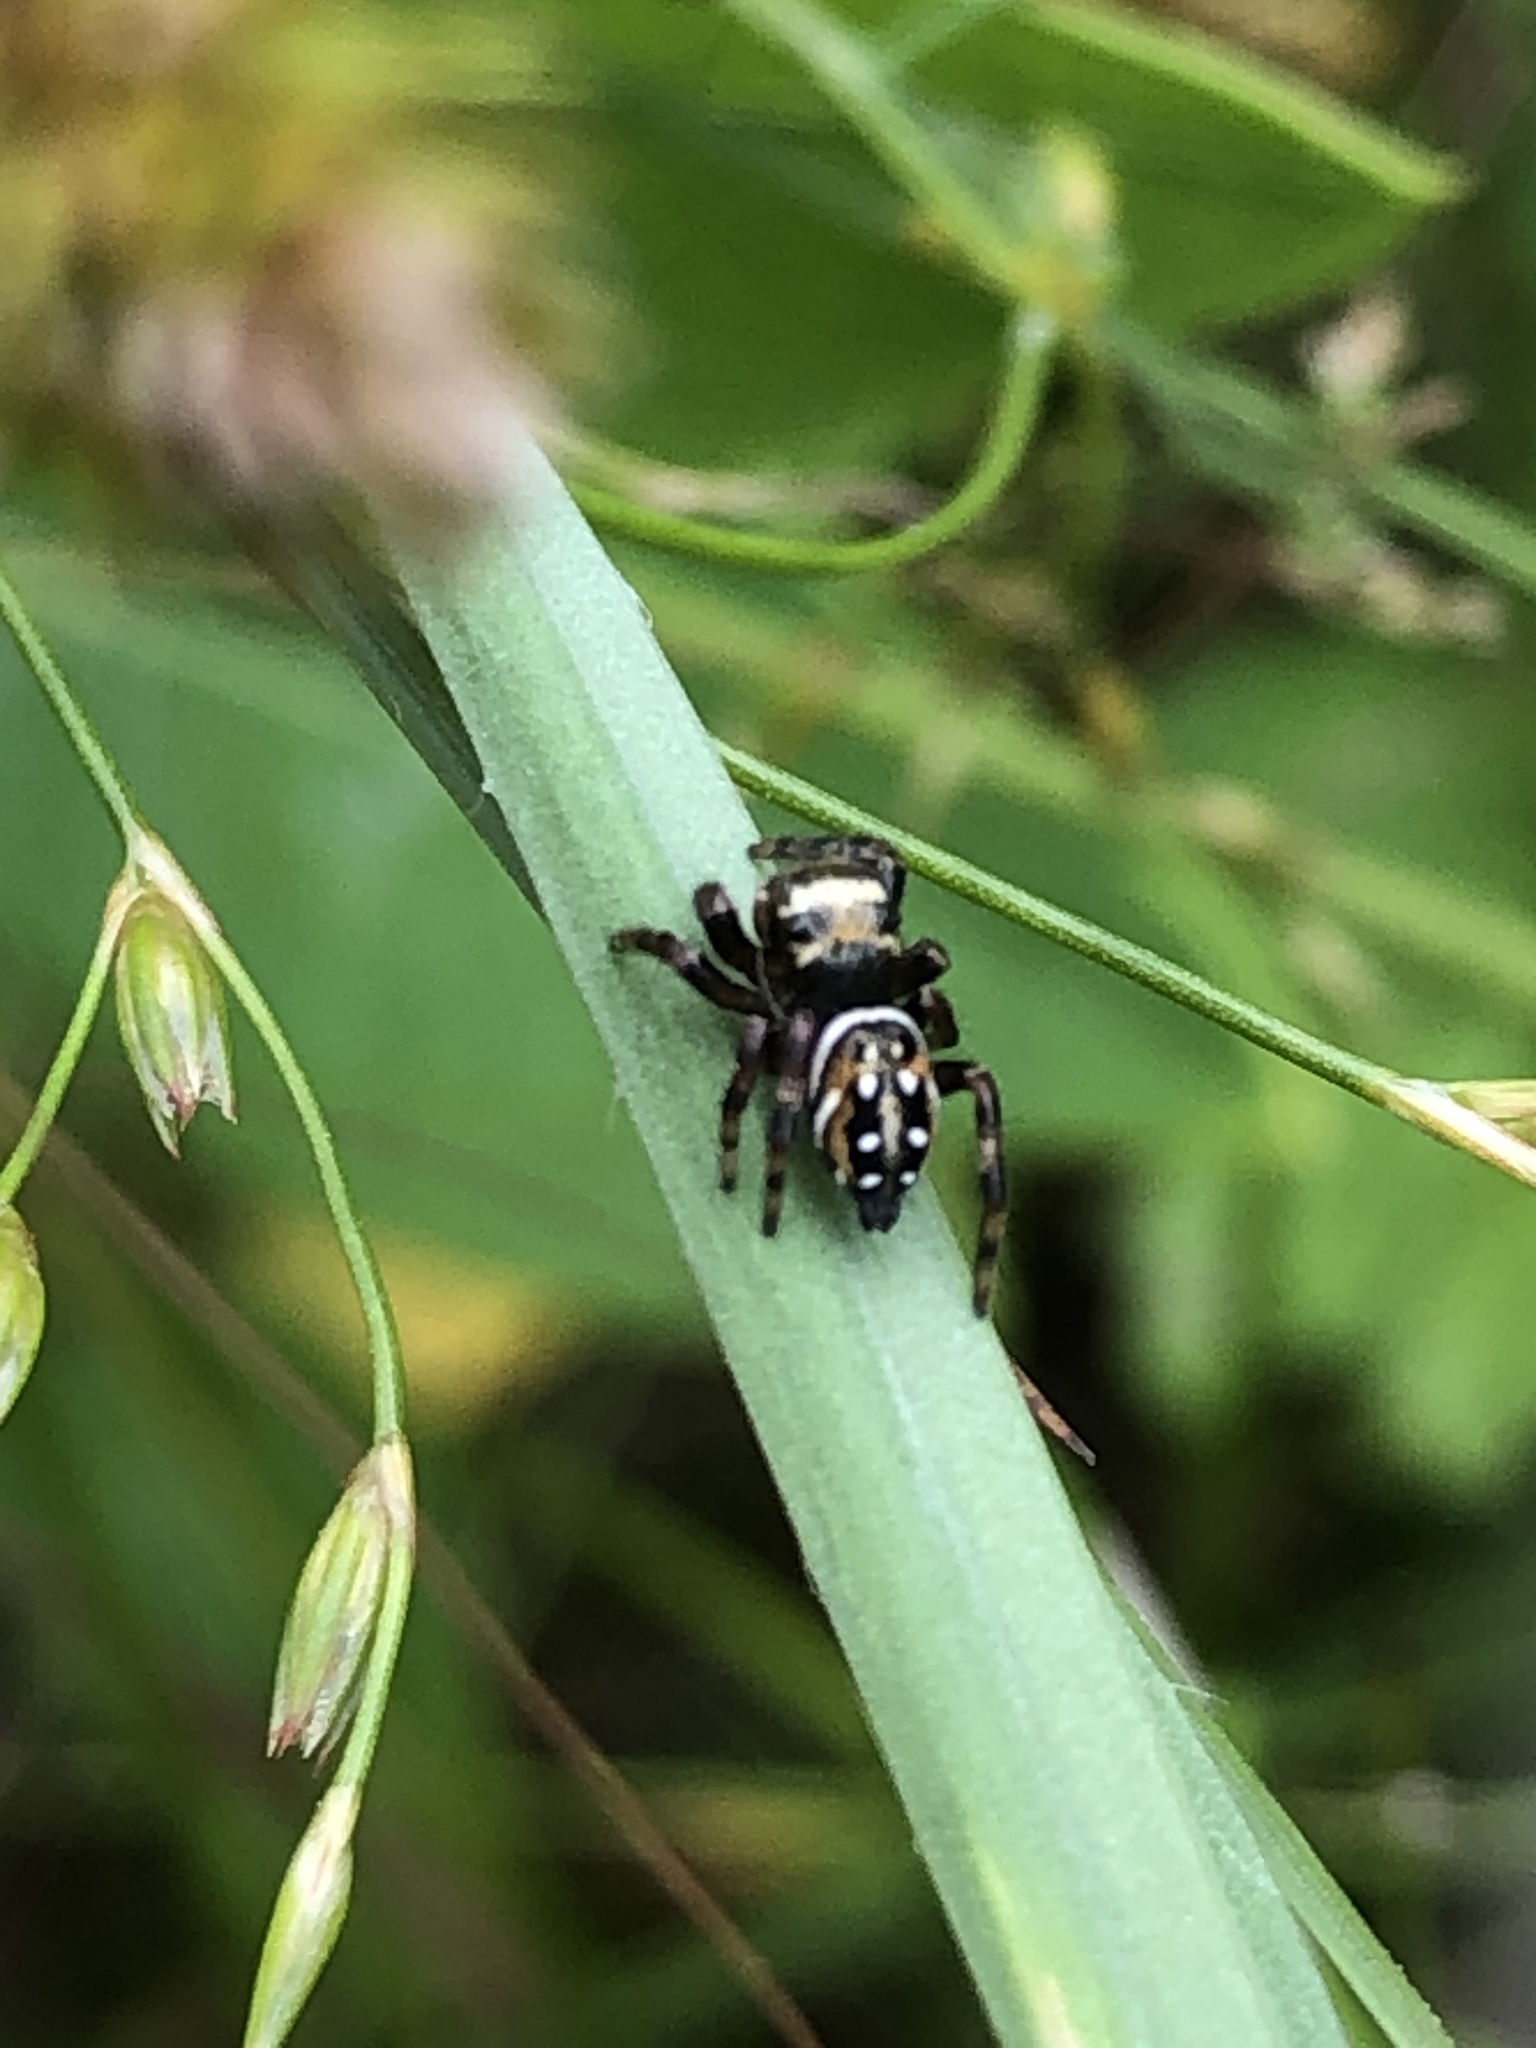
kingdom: Animalia
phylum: Arthropoda
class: Arachnida
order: Araneae
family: Salticidae
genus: Phidippus
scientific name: Phidippus clarus
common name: Brilliant jumping spider
